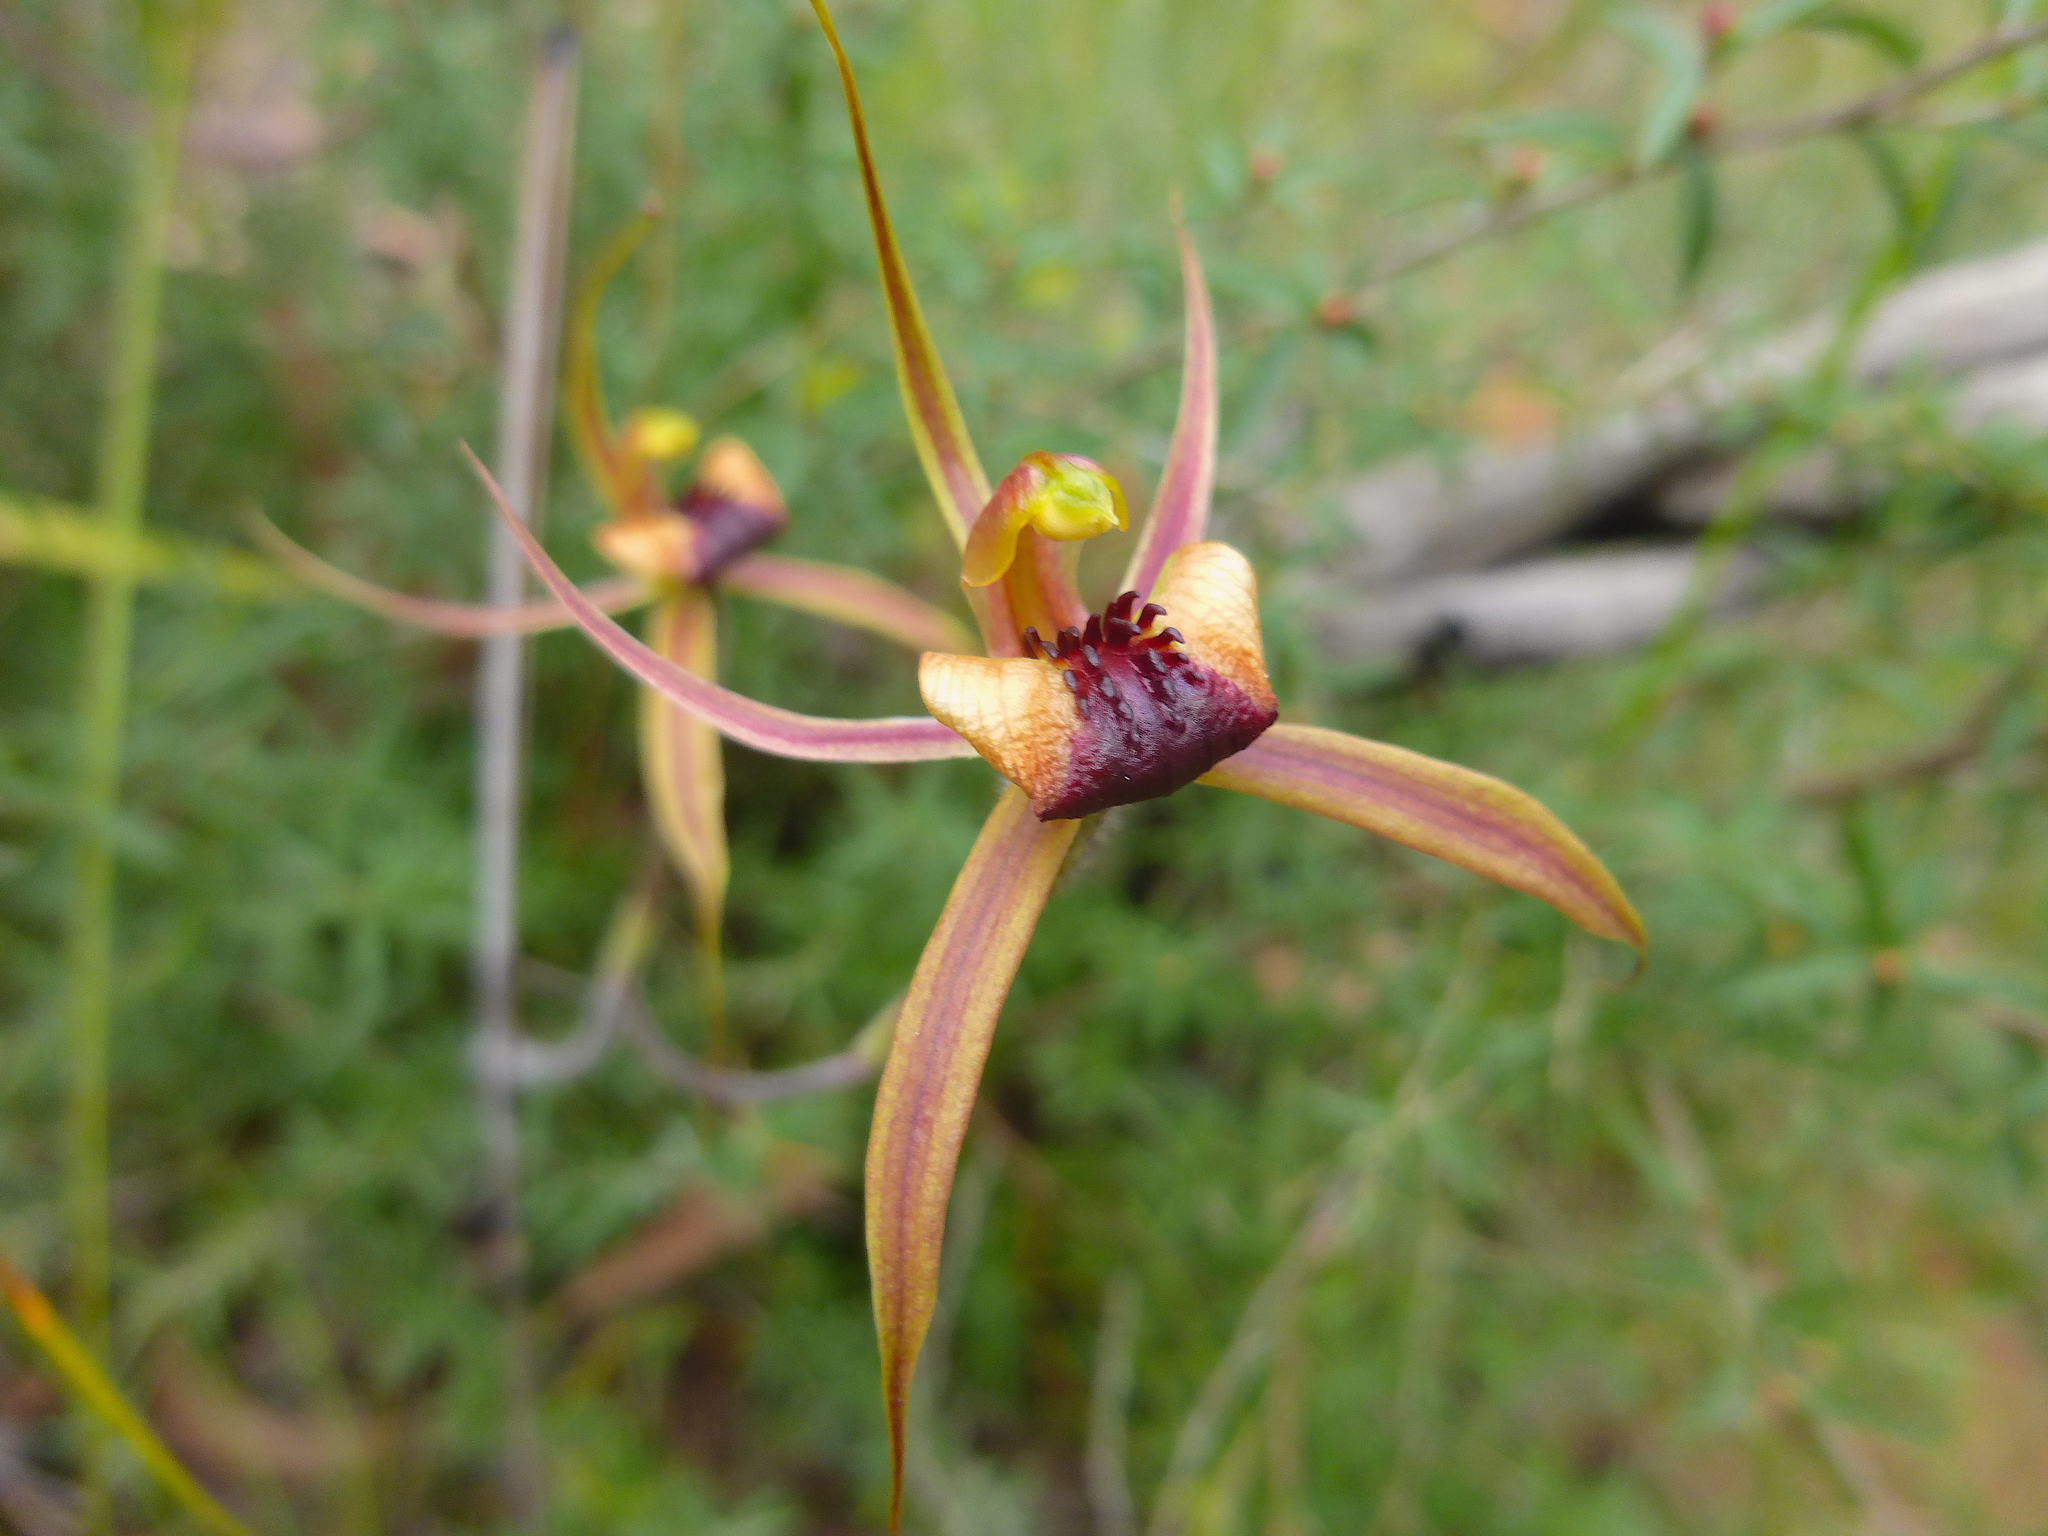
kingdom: Plantae
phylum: Tracheophyta
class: Liliopsida
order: Asparagales
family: Orchidaceae
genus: Caladenia
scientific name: Caladenia clavigera
